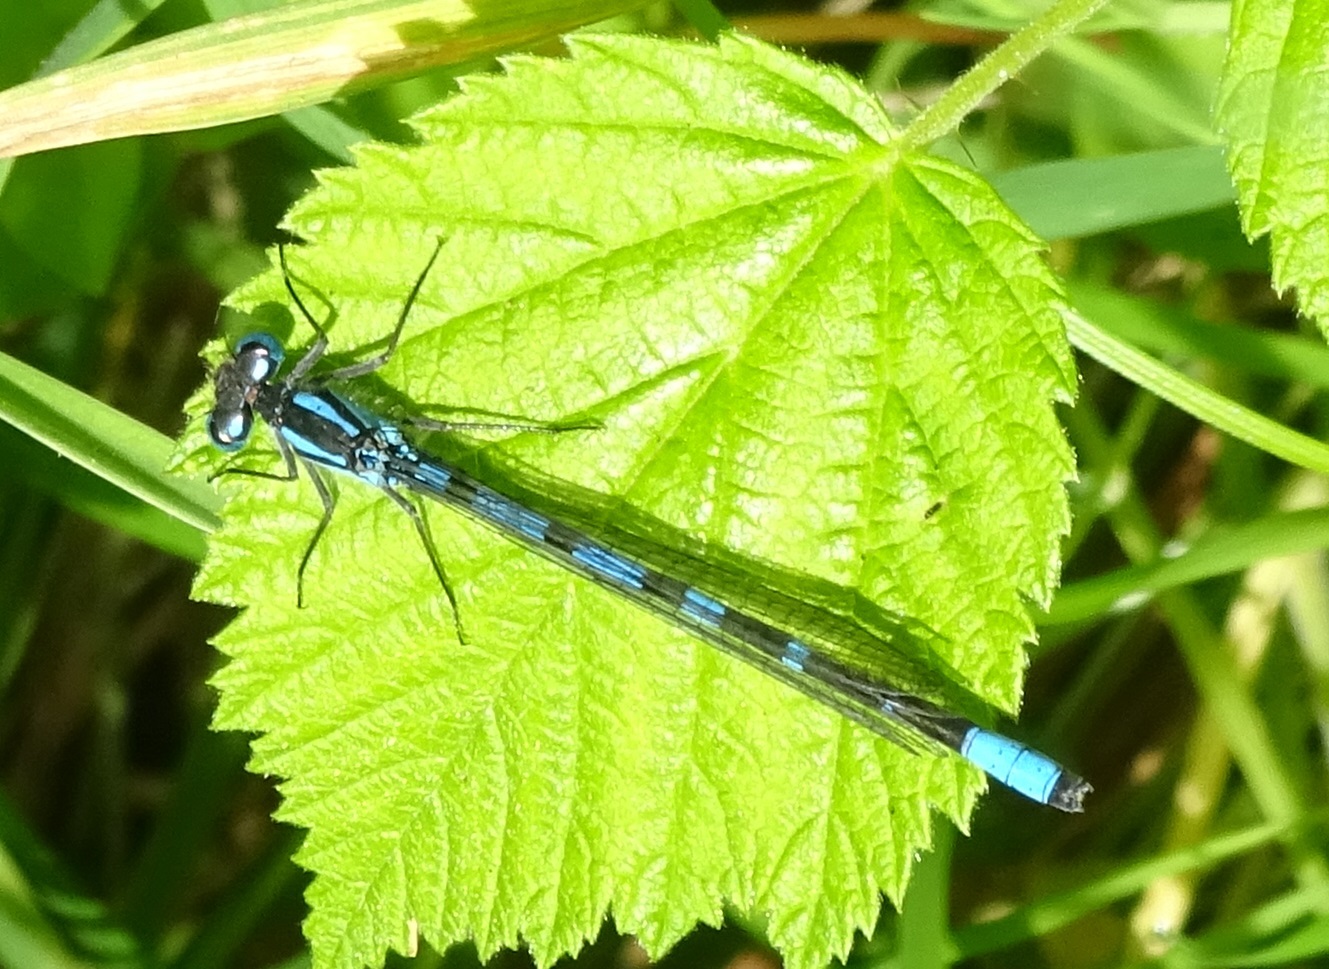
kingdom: Animalia
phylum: Arthropoda
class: Insecta
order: Odonata
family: Coenagrionidae
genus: Enallagma
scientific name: Enallagma cyathigerum
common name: Common blue damselfly
